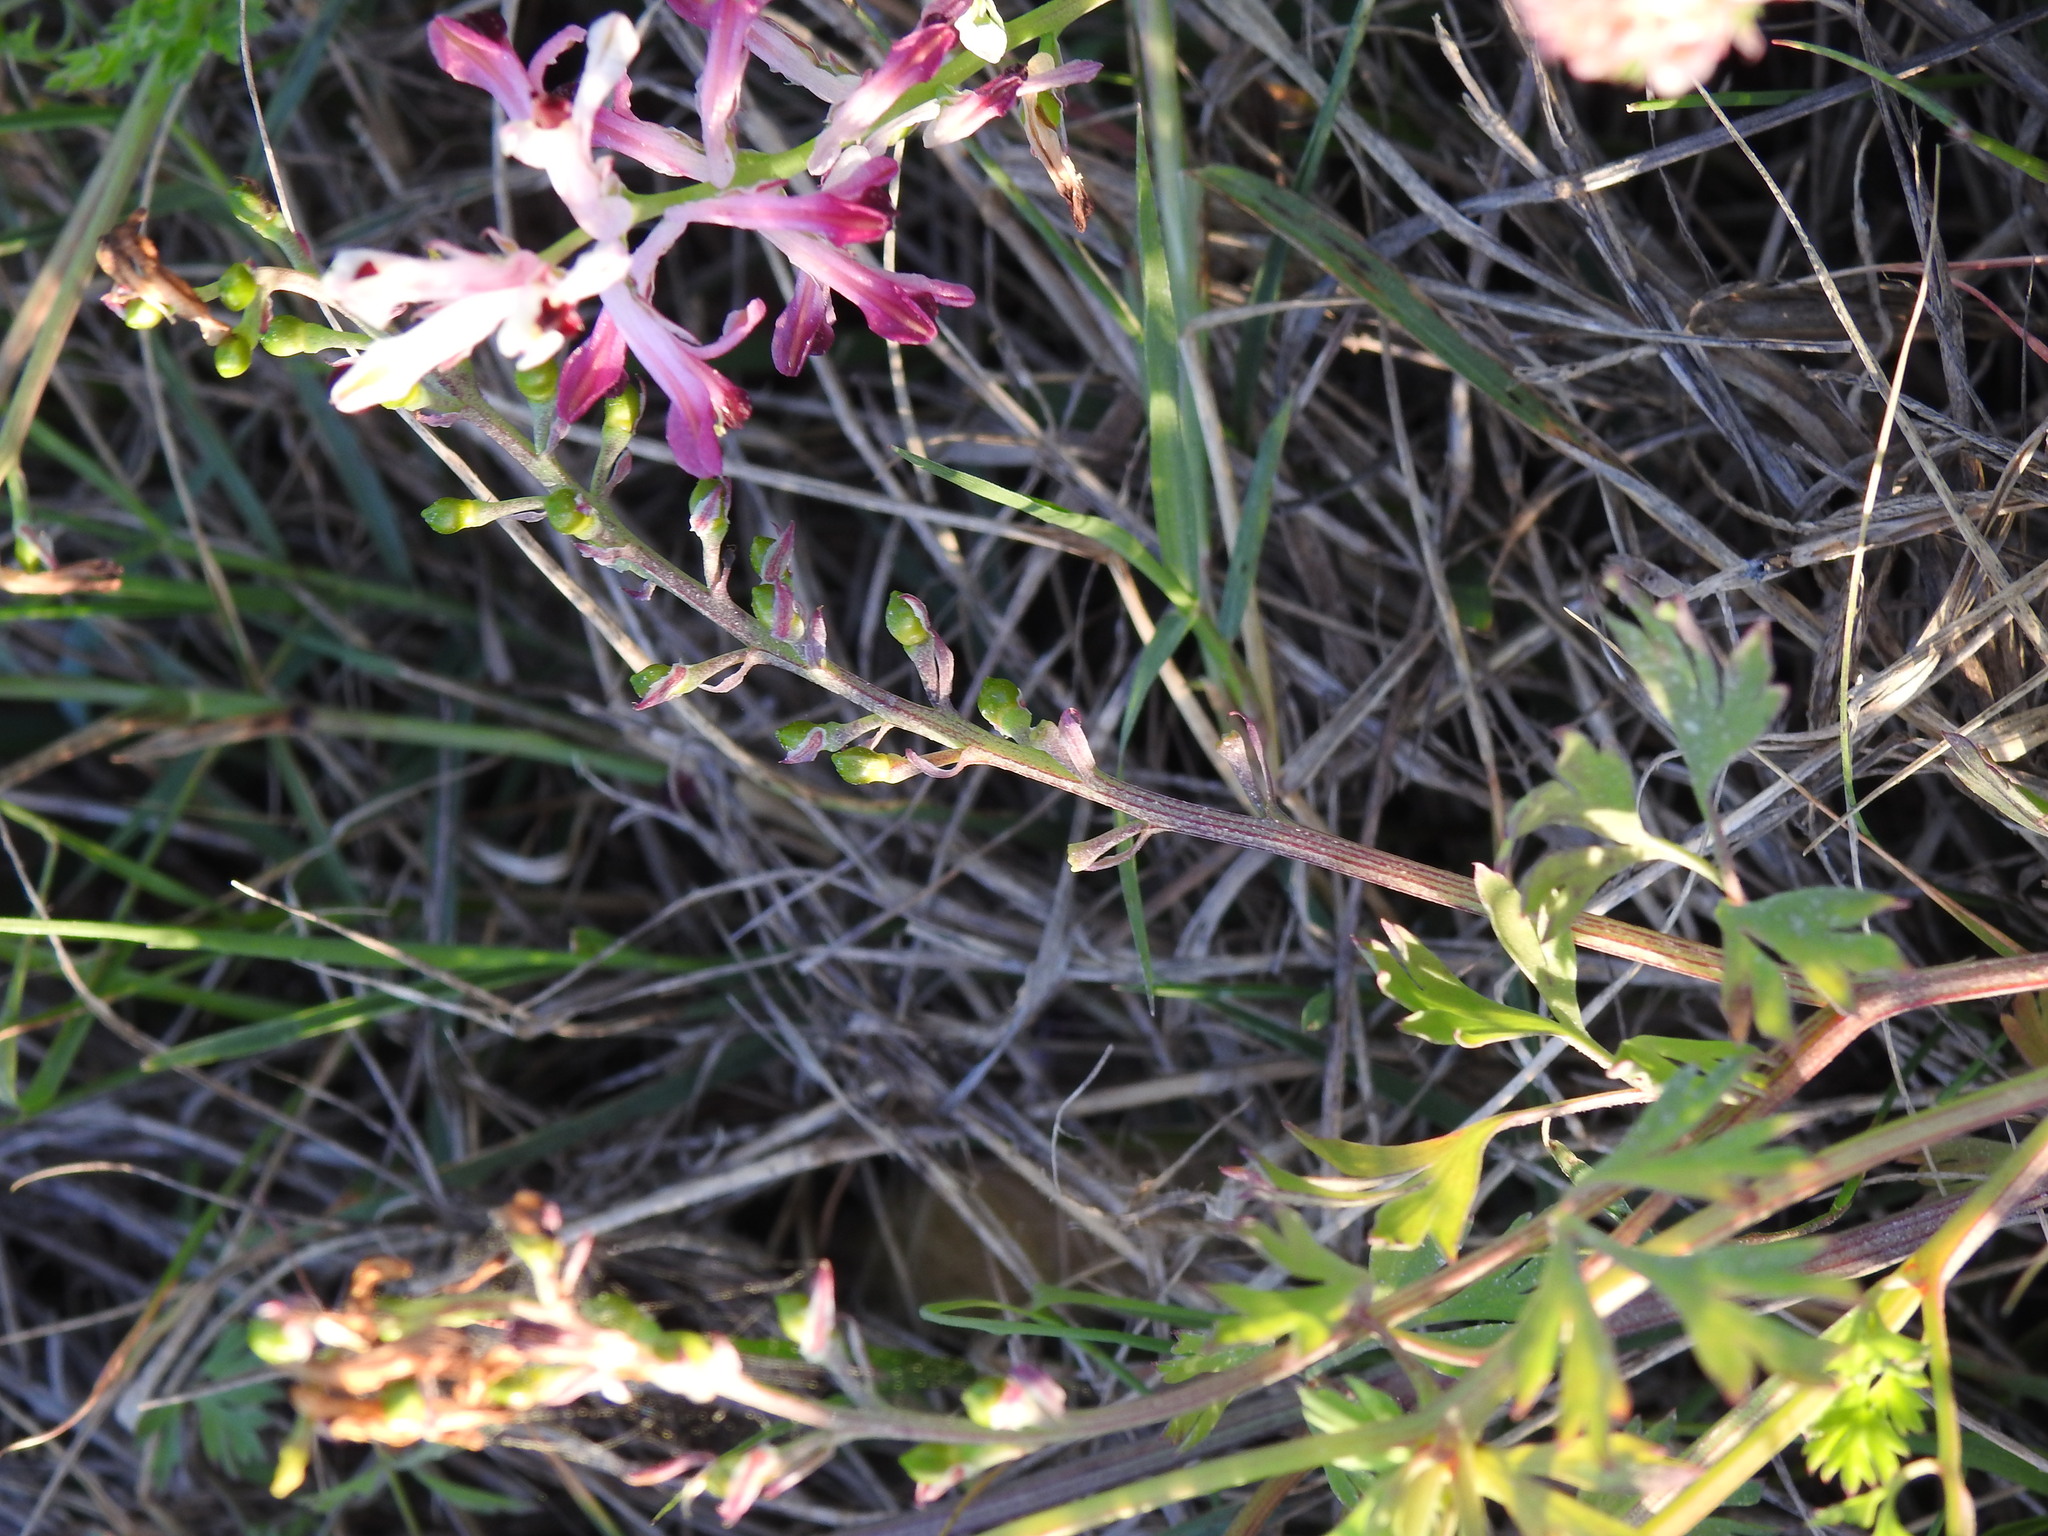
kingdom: Plantae
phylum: Tracheophyta
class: Magnoliopsida
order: Ranunculales
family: Papaveraceae
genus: Fumaria
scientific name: Fumaria agraria
